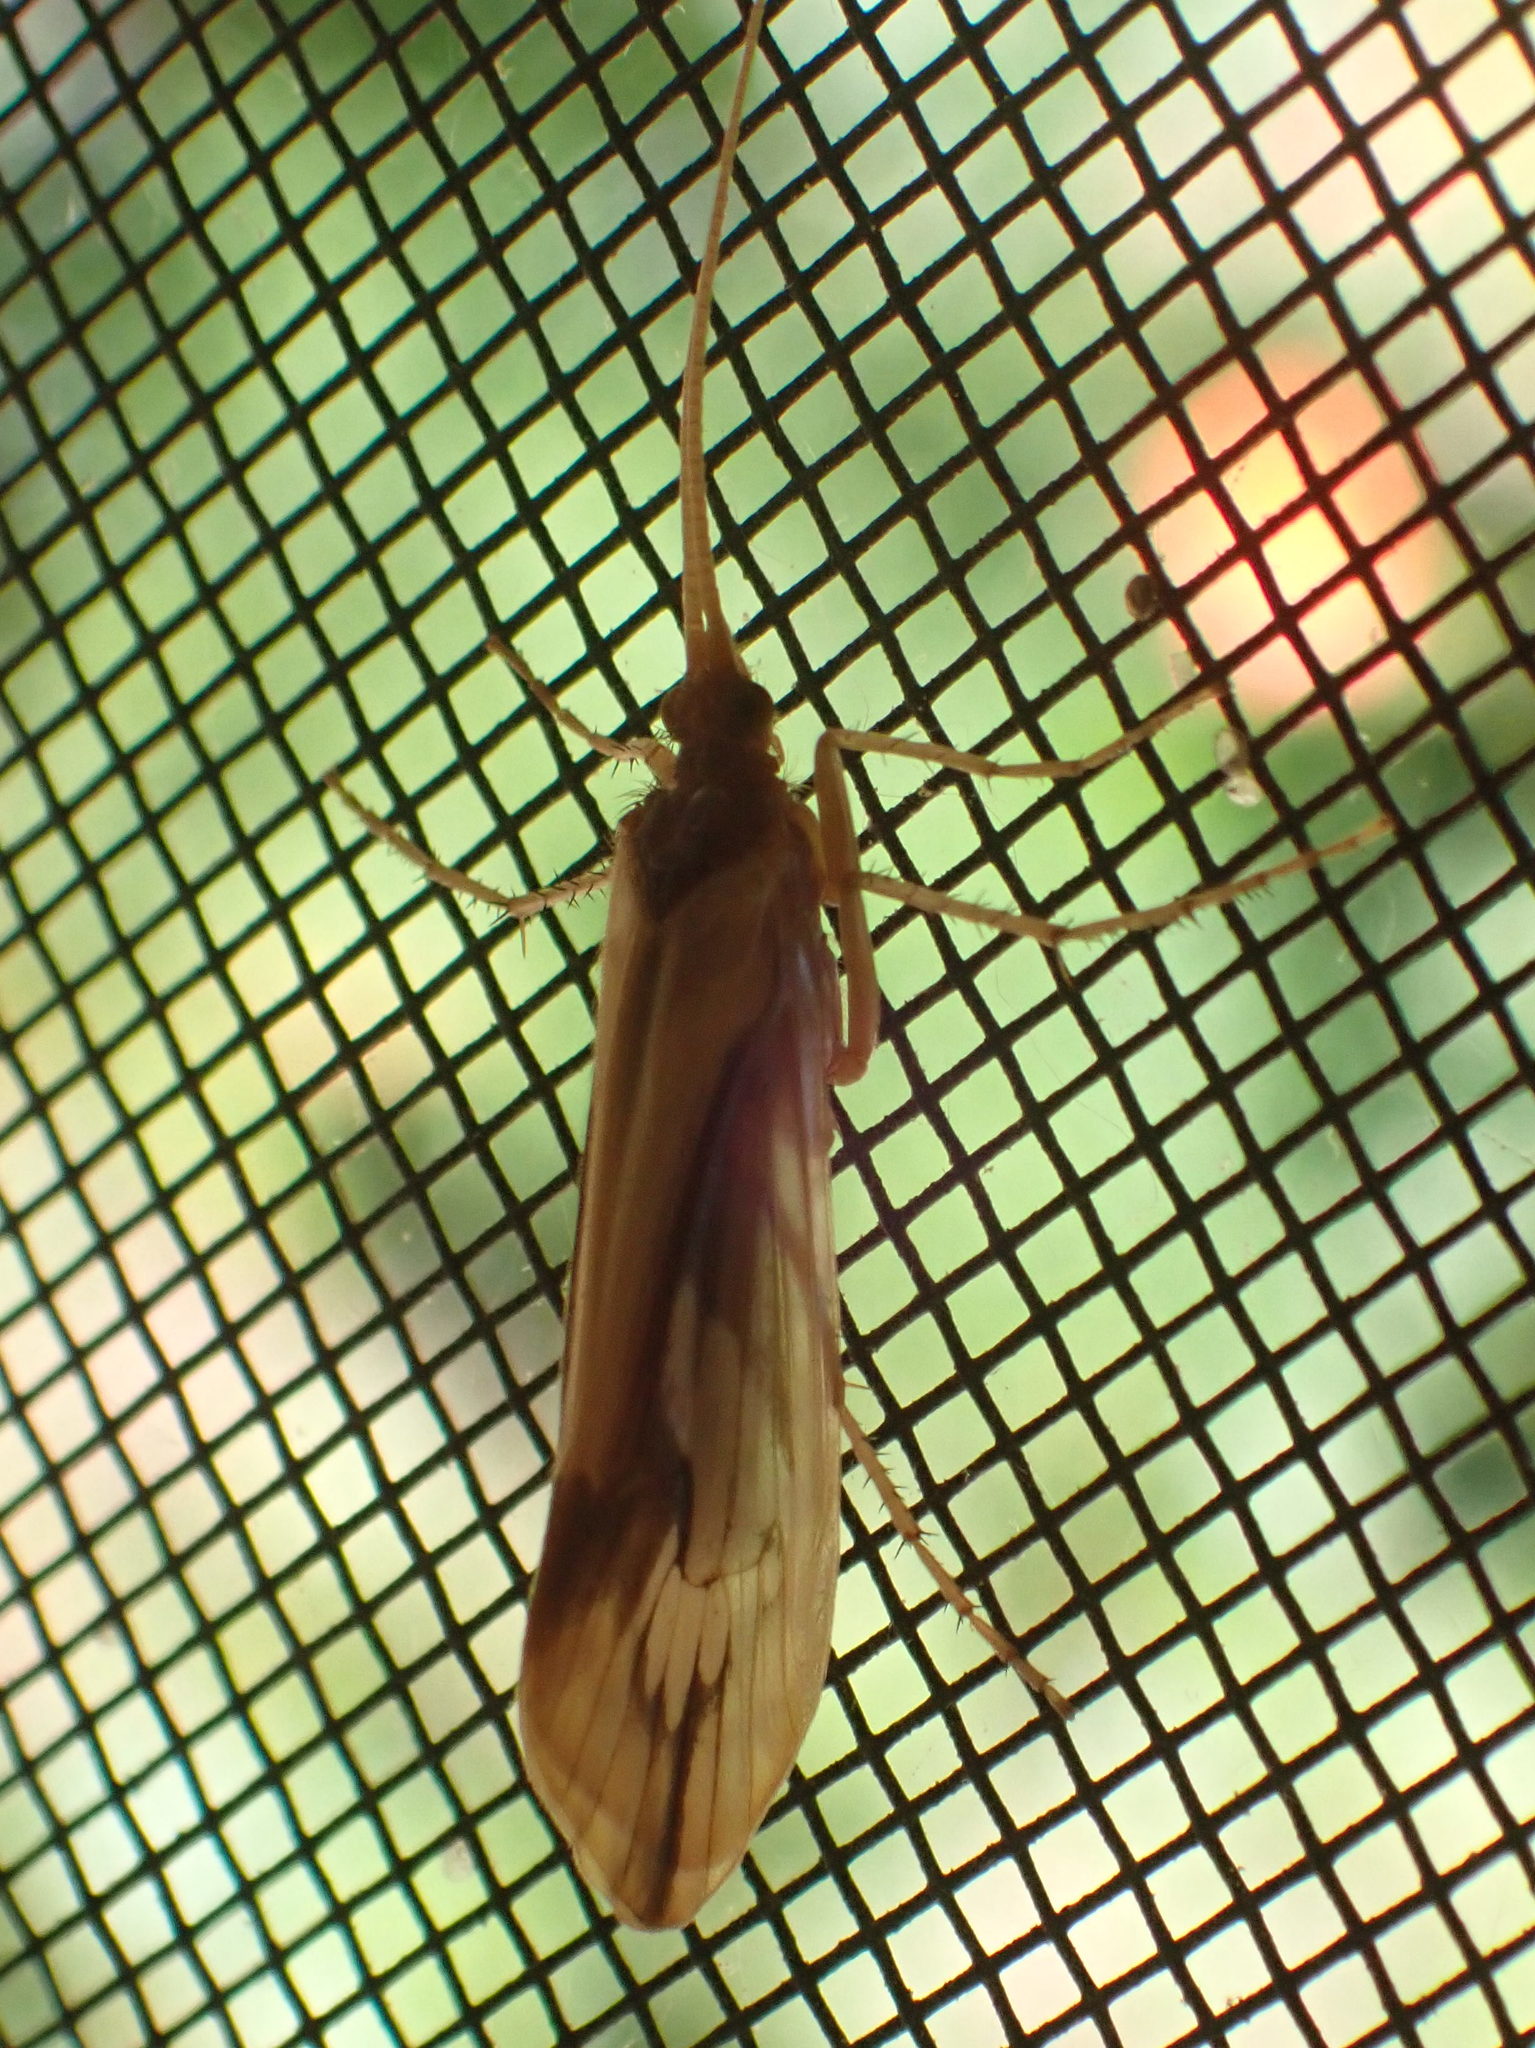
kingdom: Animalia
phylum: Arthropoda
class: Insecta
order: Trichoptera
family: Limnephilidae
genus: Platycentropus
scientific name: Platycentropus radiatus
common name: Chocolate-and-cream sedge
